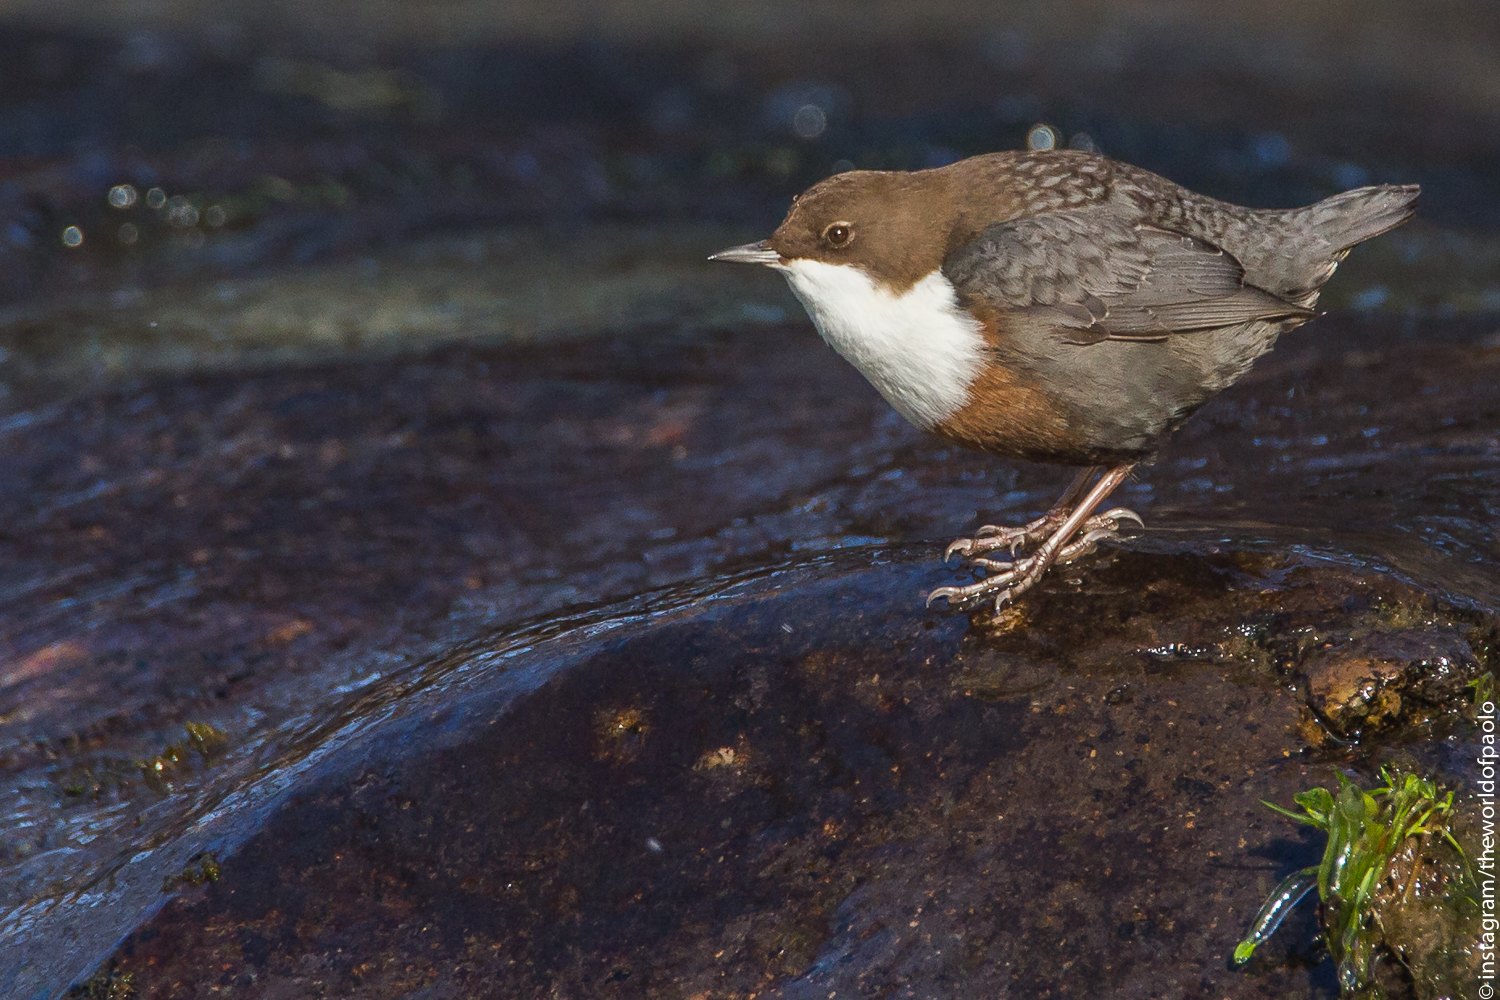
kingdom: Animalia
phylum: Chordata
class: Aves
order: Passeriformes
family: Cinclidae
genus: Cinclus
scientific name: Cinclus cinclus
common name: White-throated dipper
